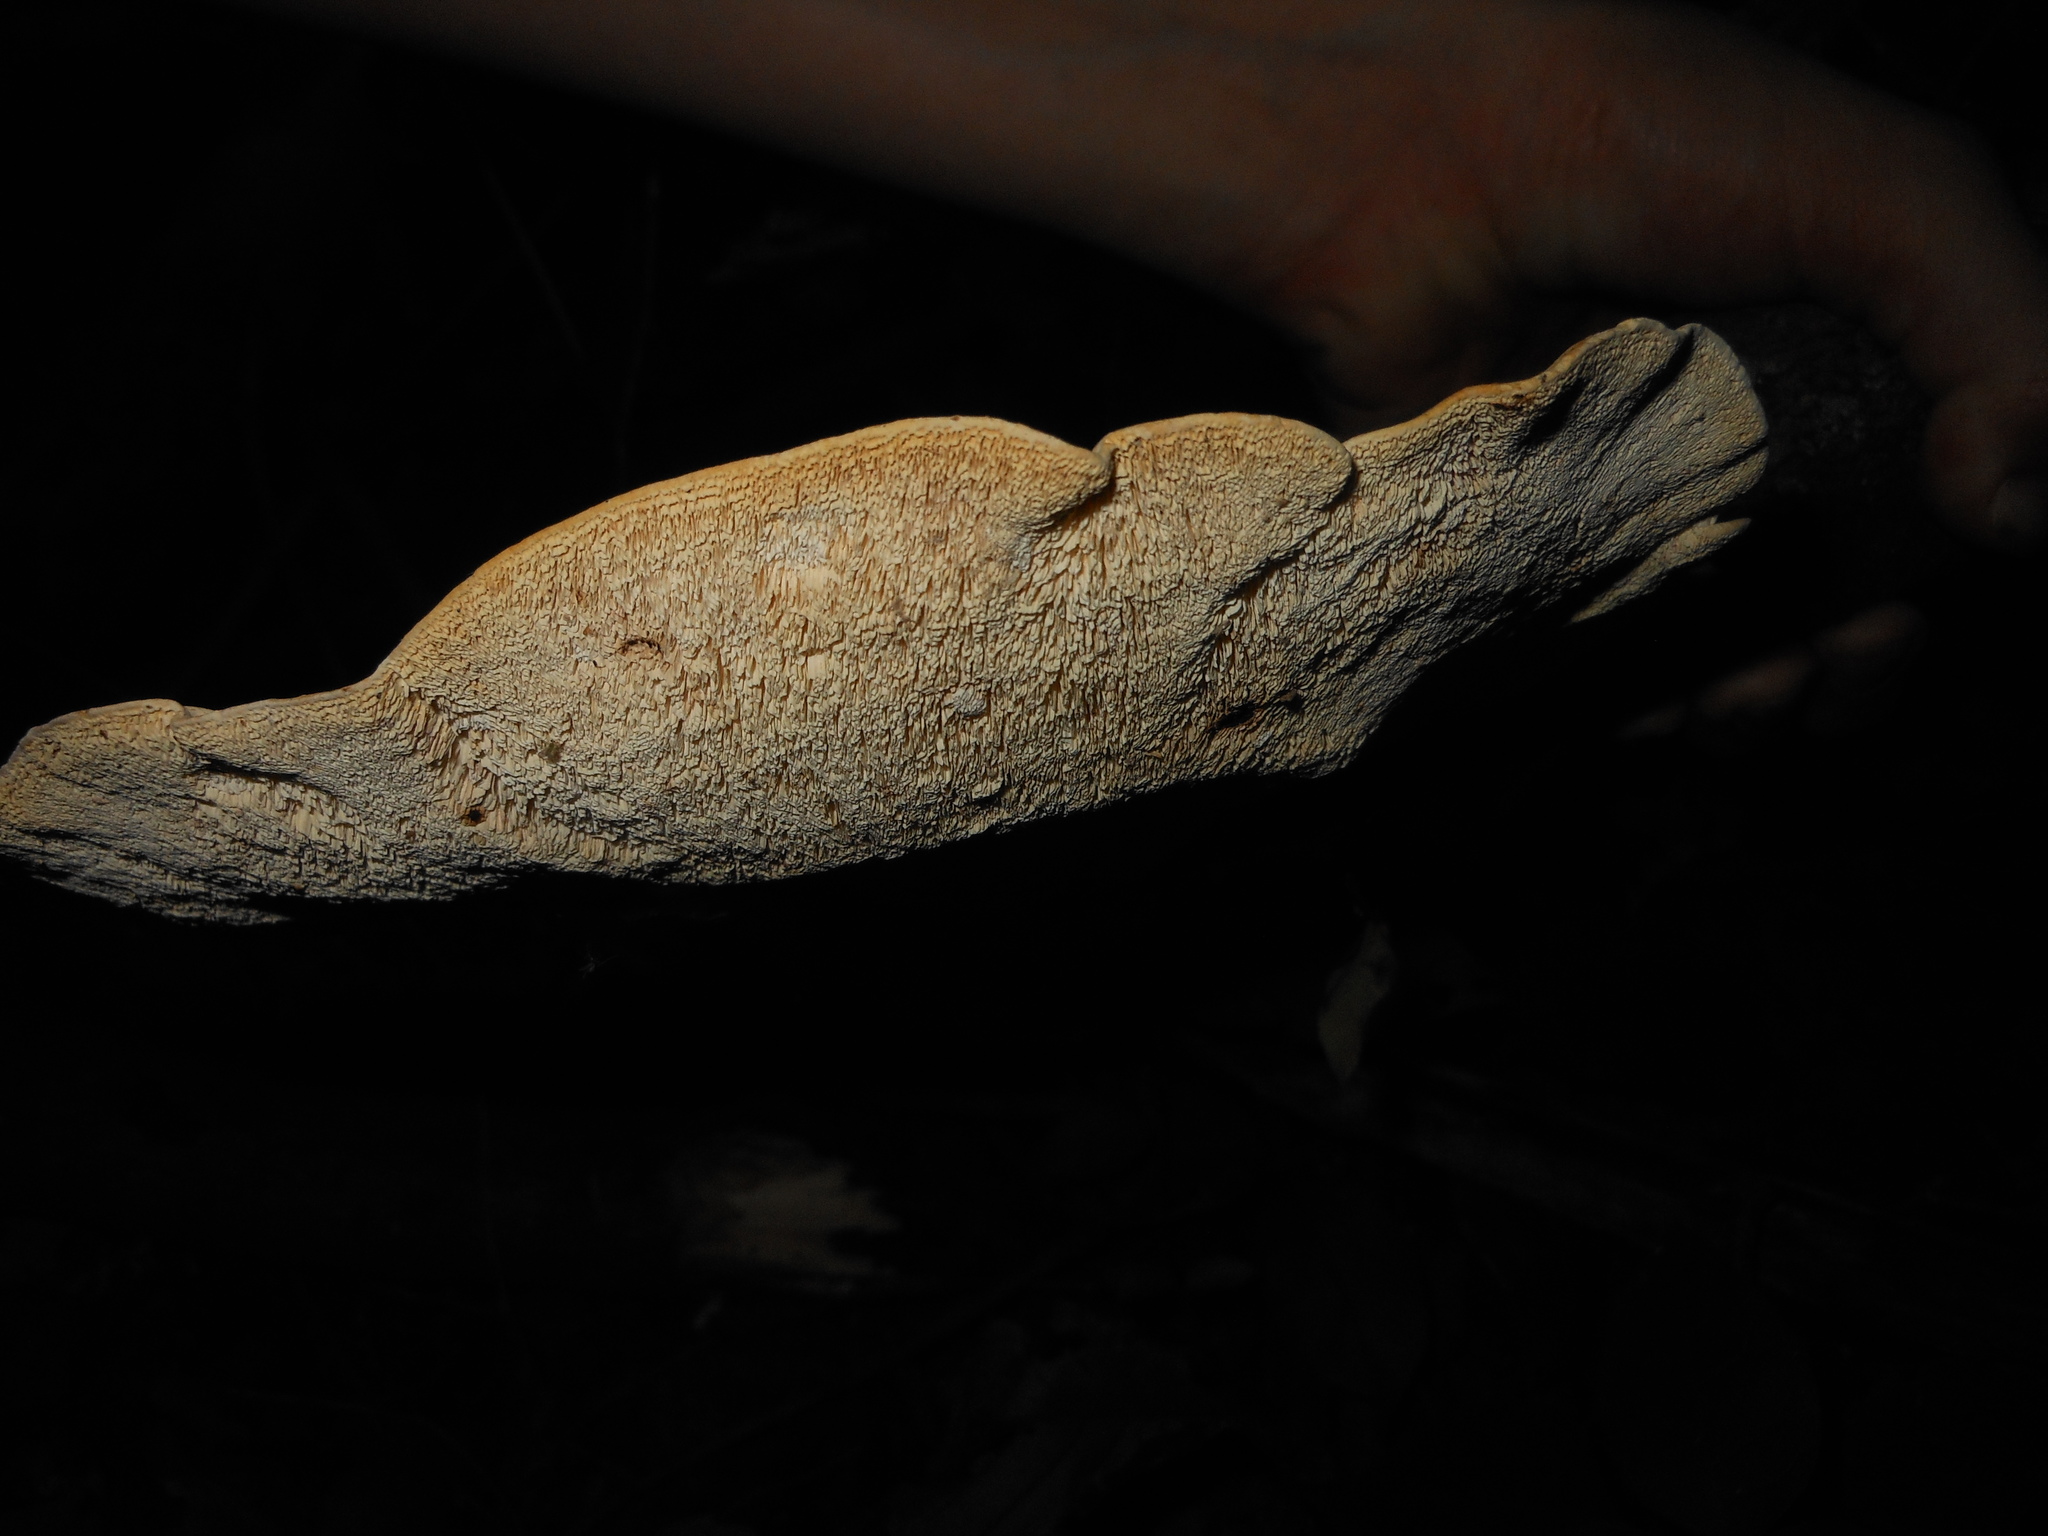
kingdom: Fungi
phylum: Basidiomycota
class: Agaricomycetes
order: Polyporales
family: Polyporaceae
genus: Trametes
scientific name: Trametes
